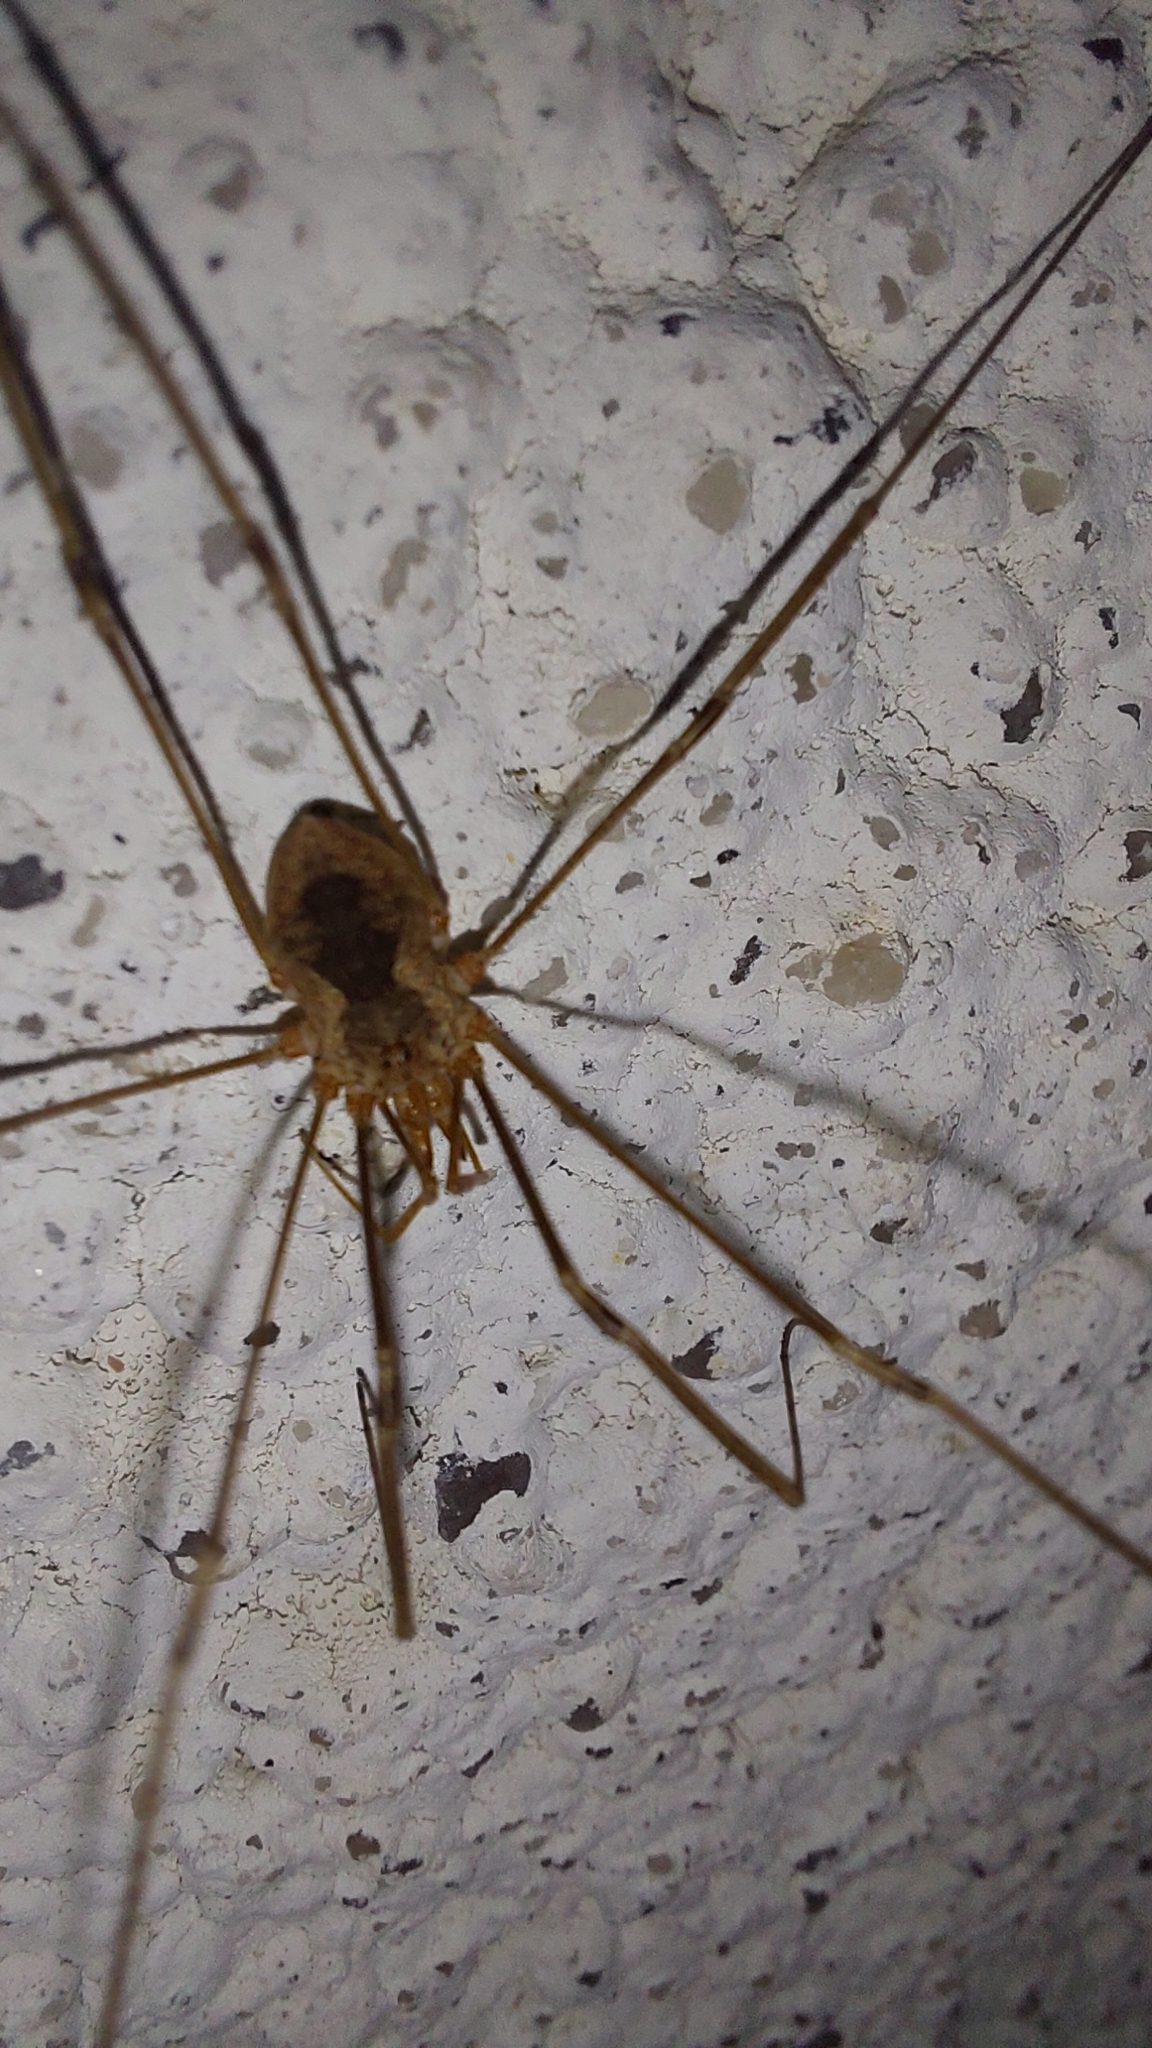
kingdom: Animalia
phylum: Arthropoda
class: Arachnida
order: Opiliones
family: Phalangiidae
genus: Phalangium
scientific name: Phalangium opilio
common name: Daddy longleg
